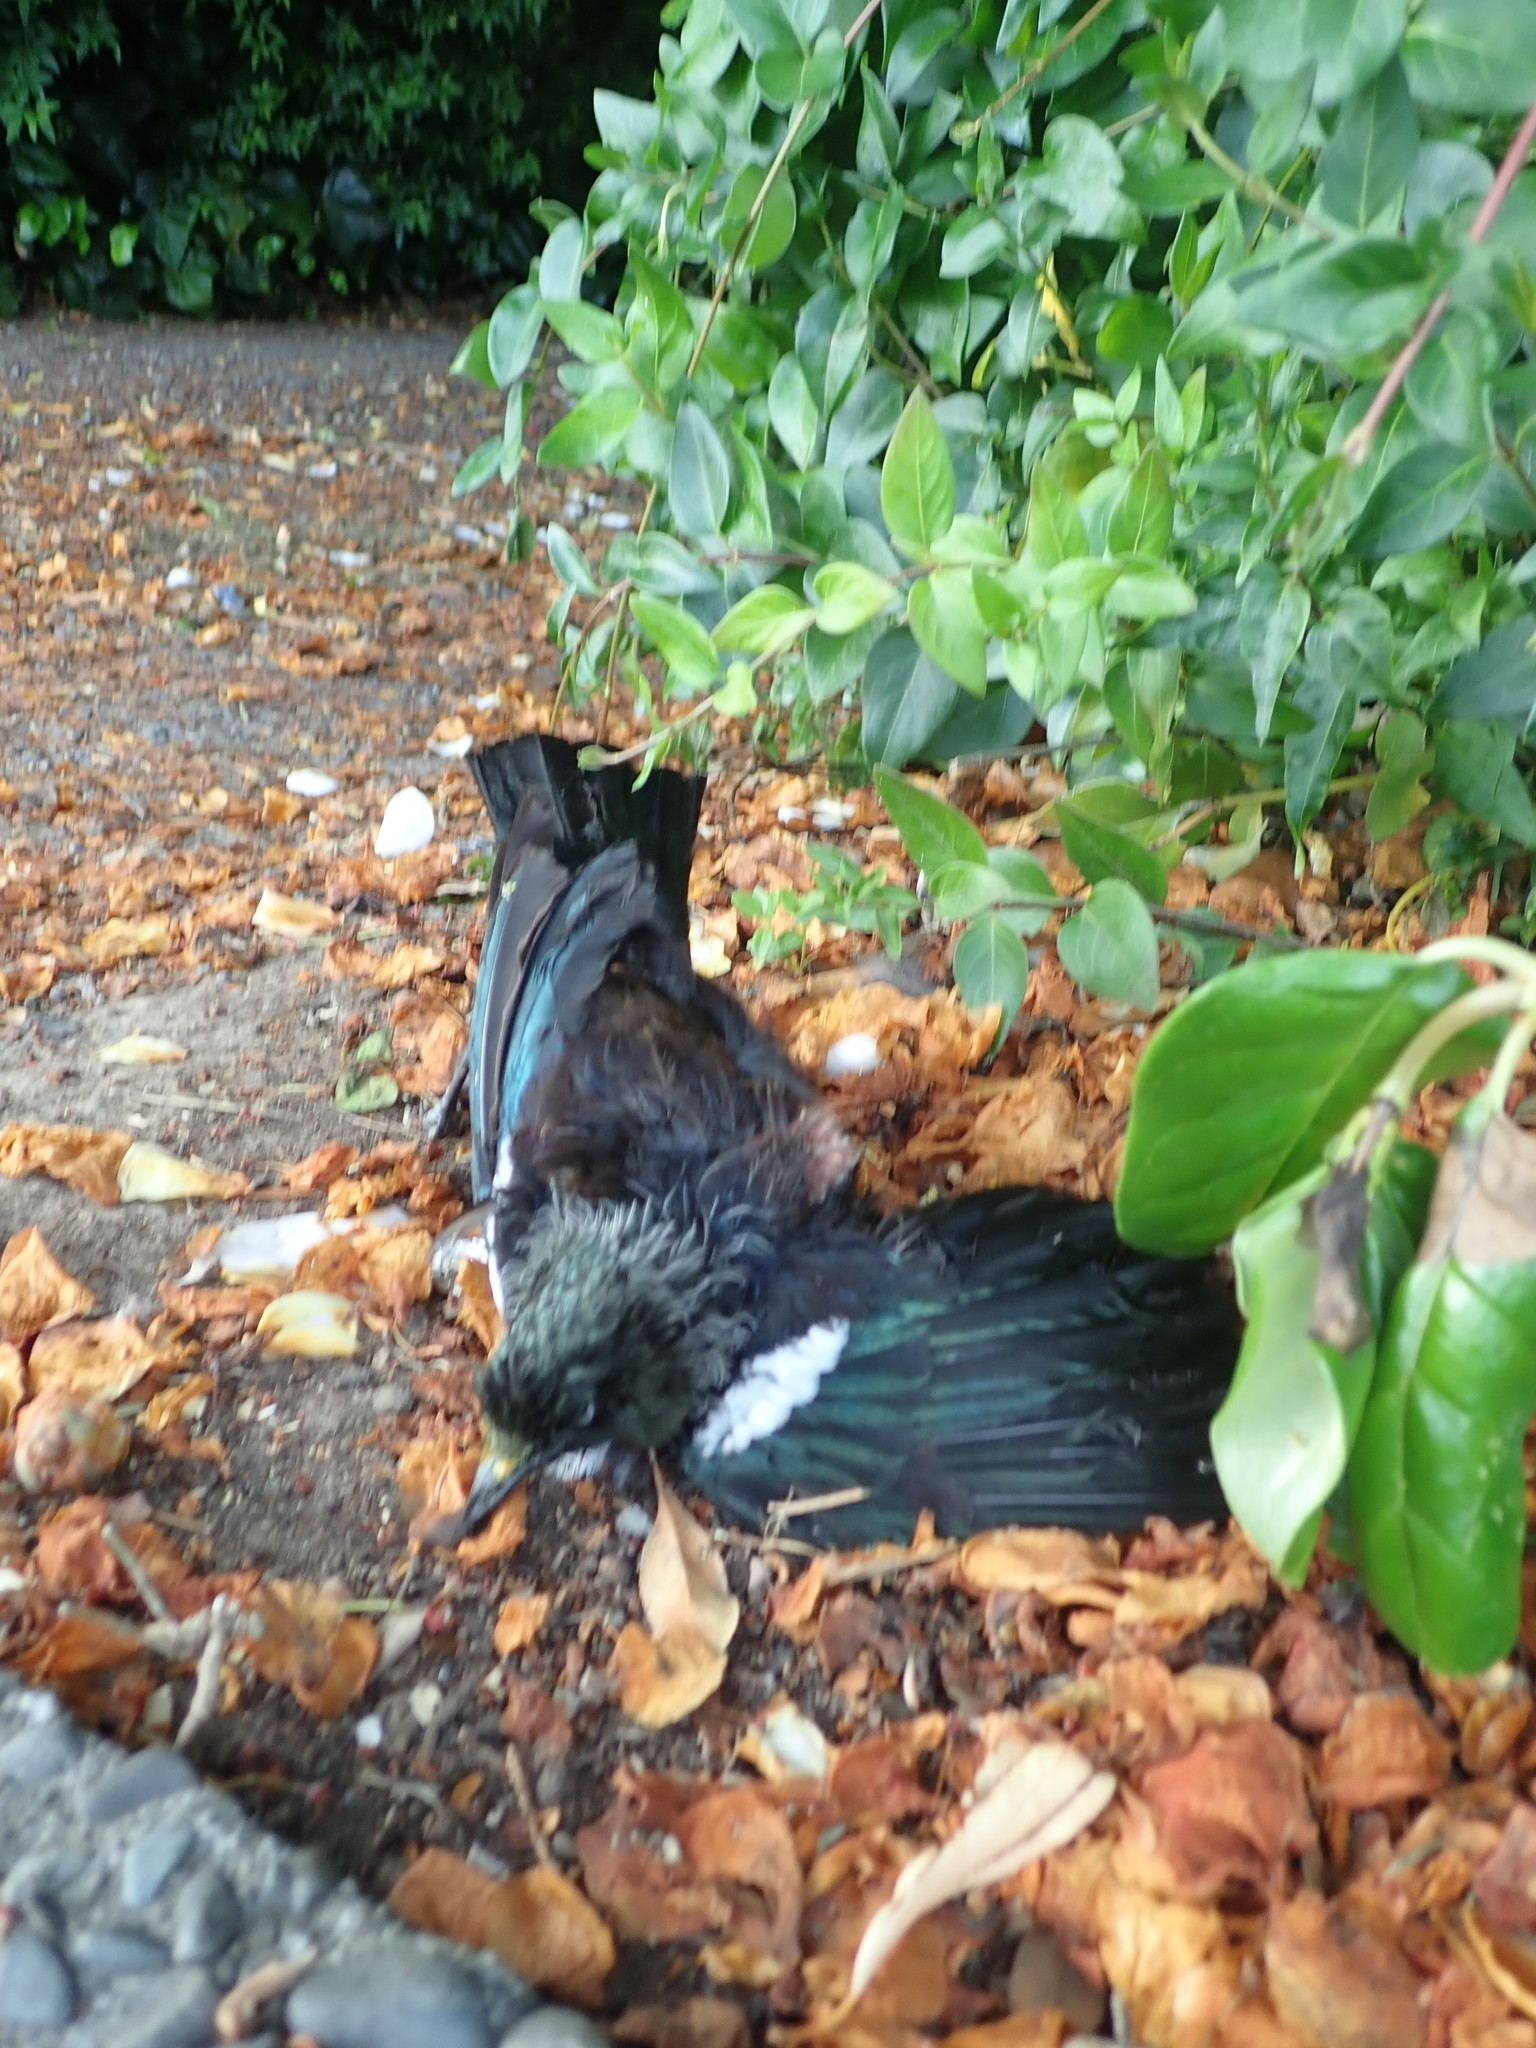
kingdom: Animalia
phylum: Chordata
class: Aves
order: Passeriformes
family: Meliphagidae
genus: Prosthemadera
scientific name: Prosthemadera novaeseelandiae
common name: Tui
